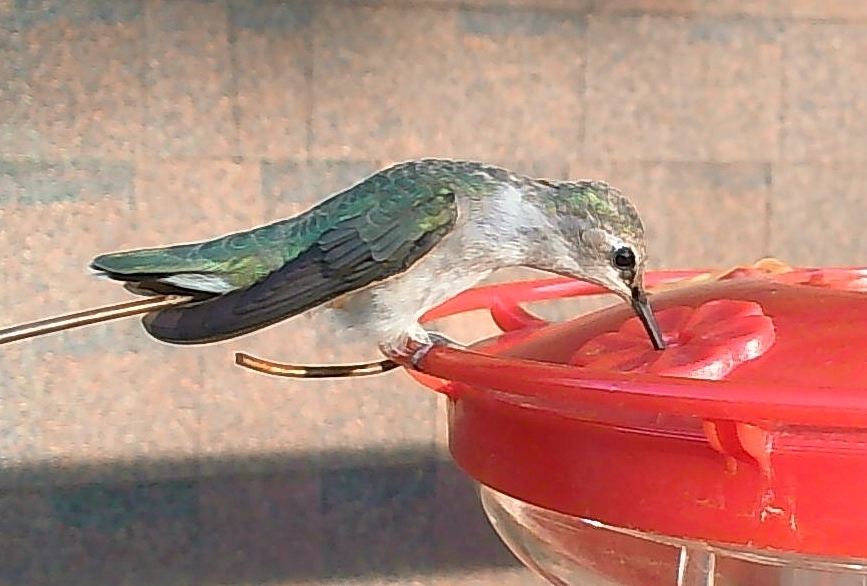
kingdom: Animalia
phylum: Chordata
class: Aves
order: Apodiformes
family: Trochilidae
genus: Selasphorus
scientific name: Selasphorus platycercus
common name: Broad-tailed hummingbird
